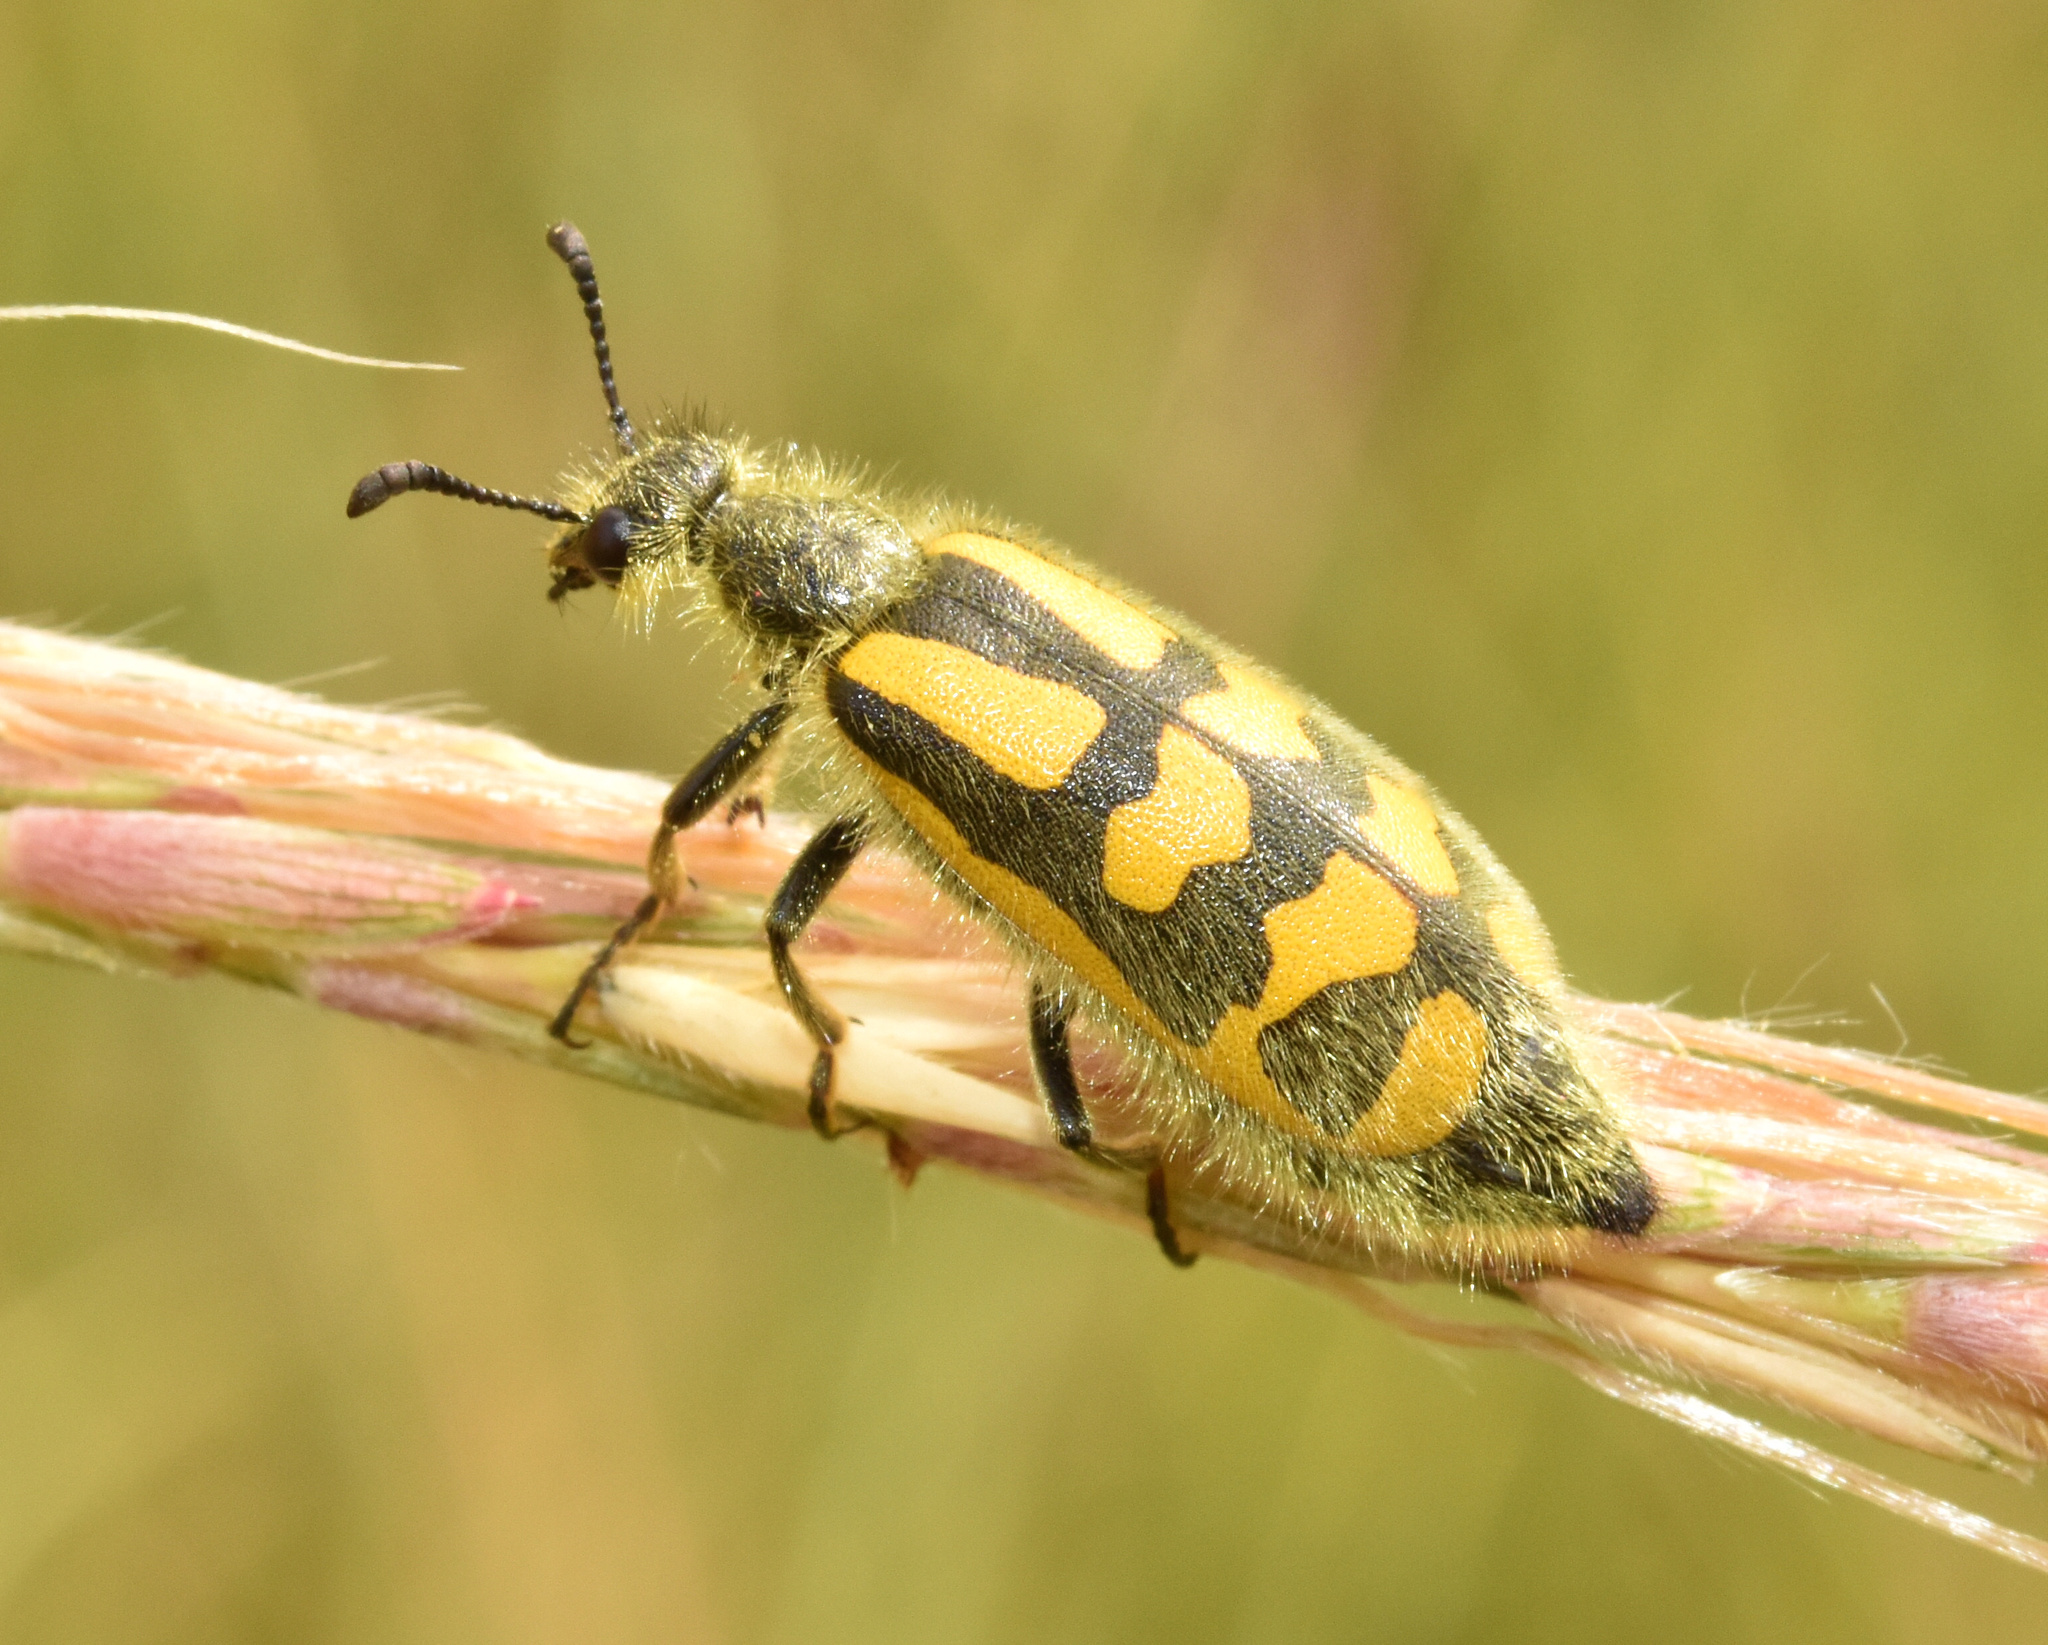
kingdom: Animalia
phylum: Arthropoda
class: Insecta
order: Coleoptera
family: Meloidae
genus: Hycleus
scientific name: Hycleus villosus
